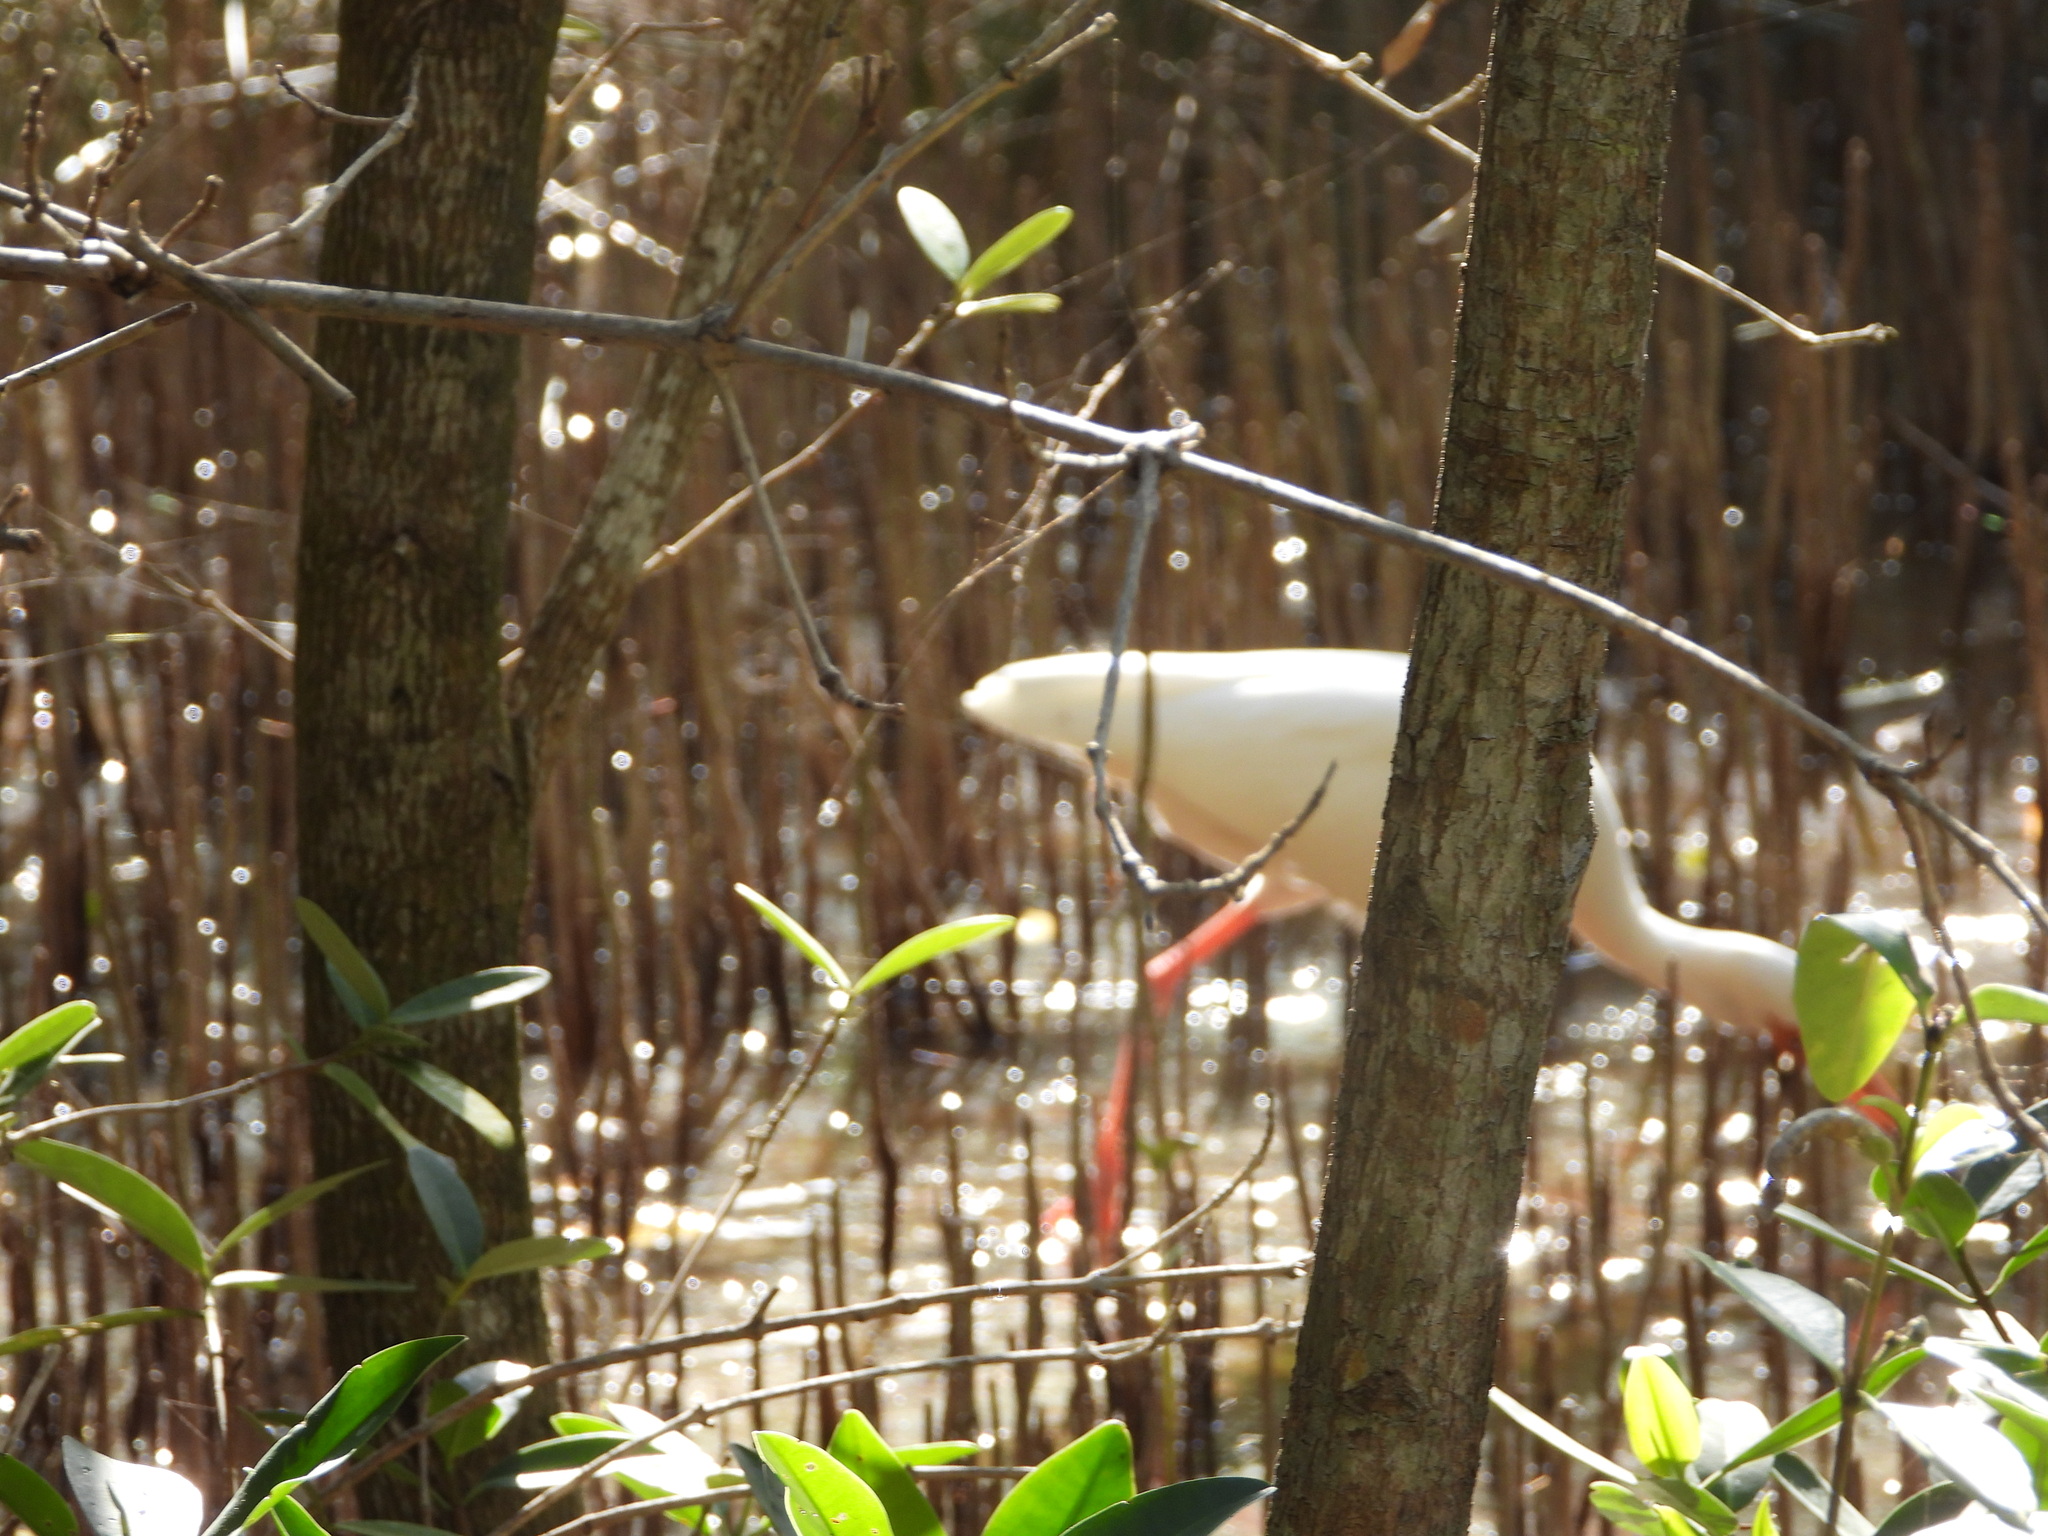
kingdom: Animalia
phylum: Chordata
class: Aves
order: Pelecaniformes
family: Threskiornithidae
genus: Eudocimus
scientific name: Eudocimus albus
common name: White ibis
